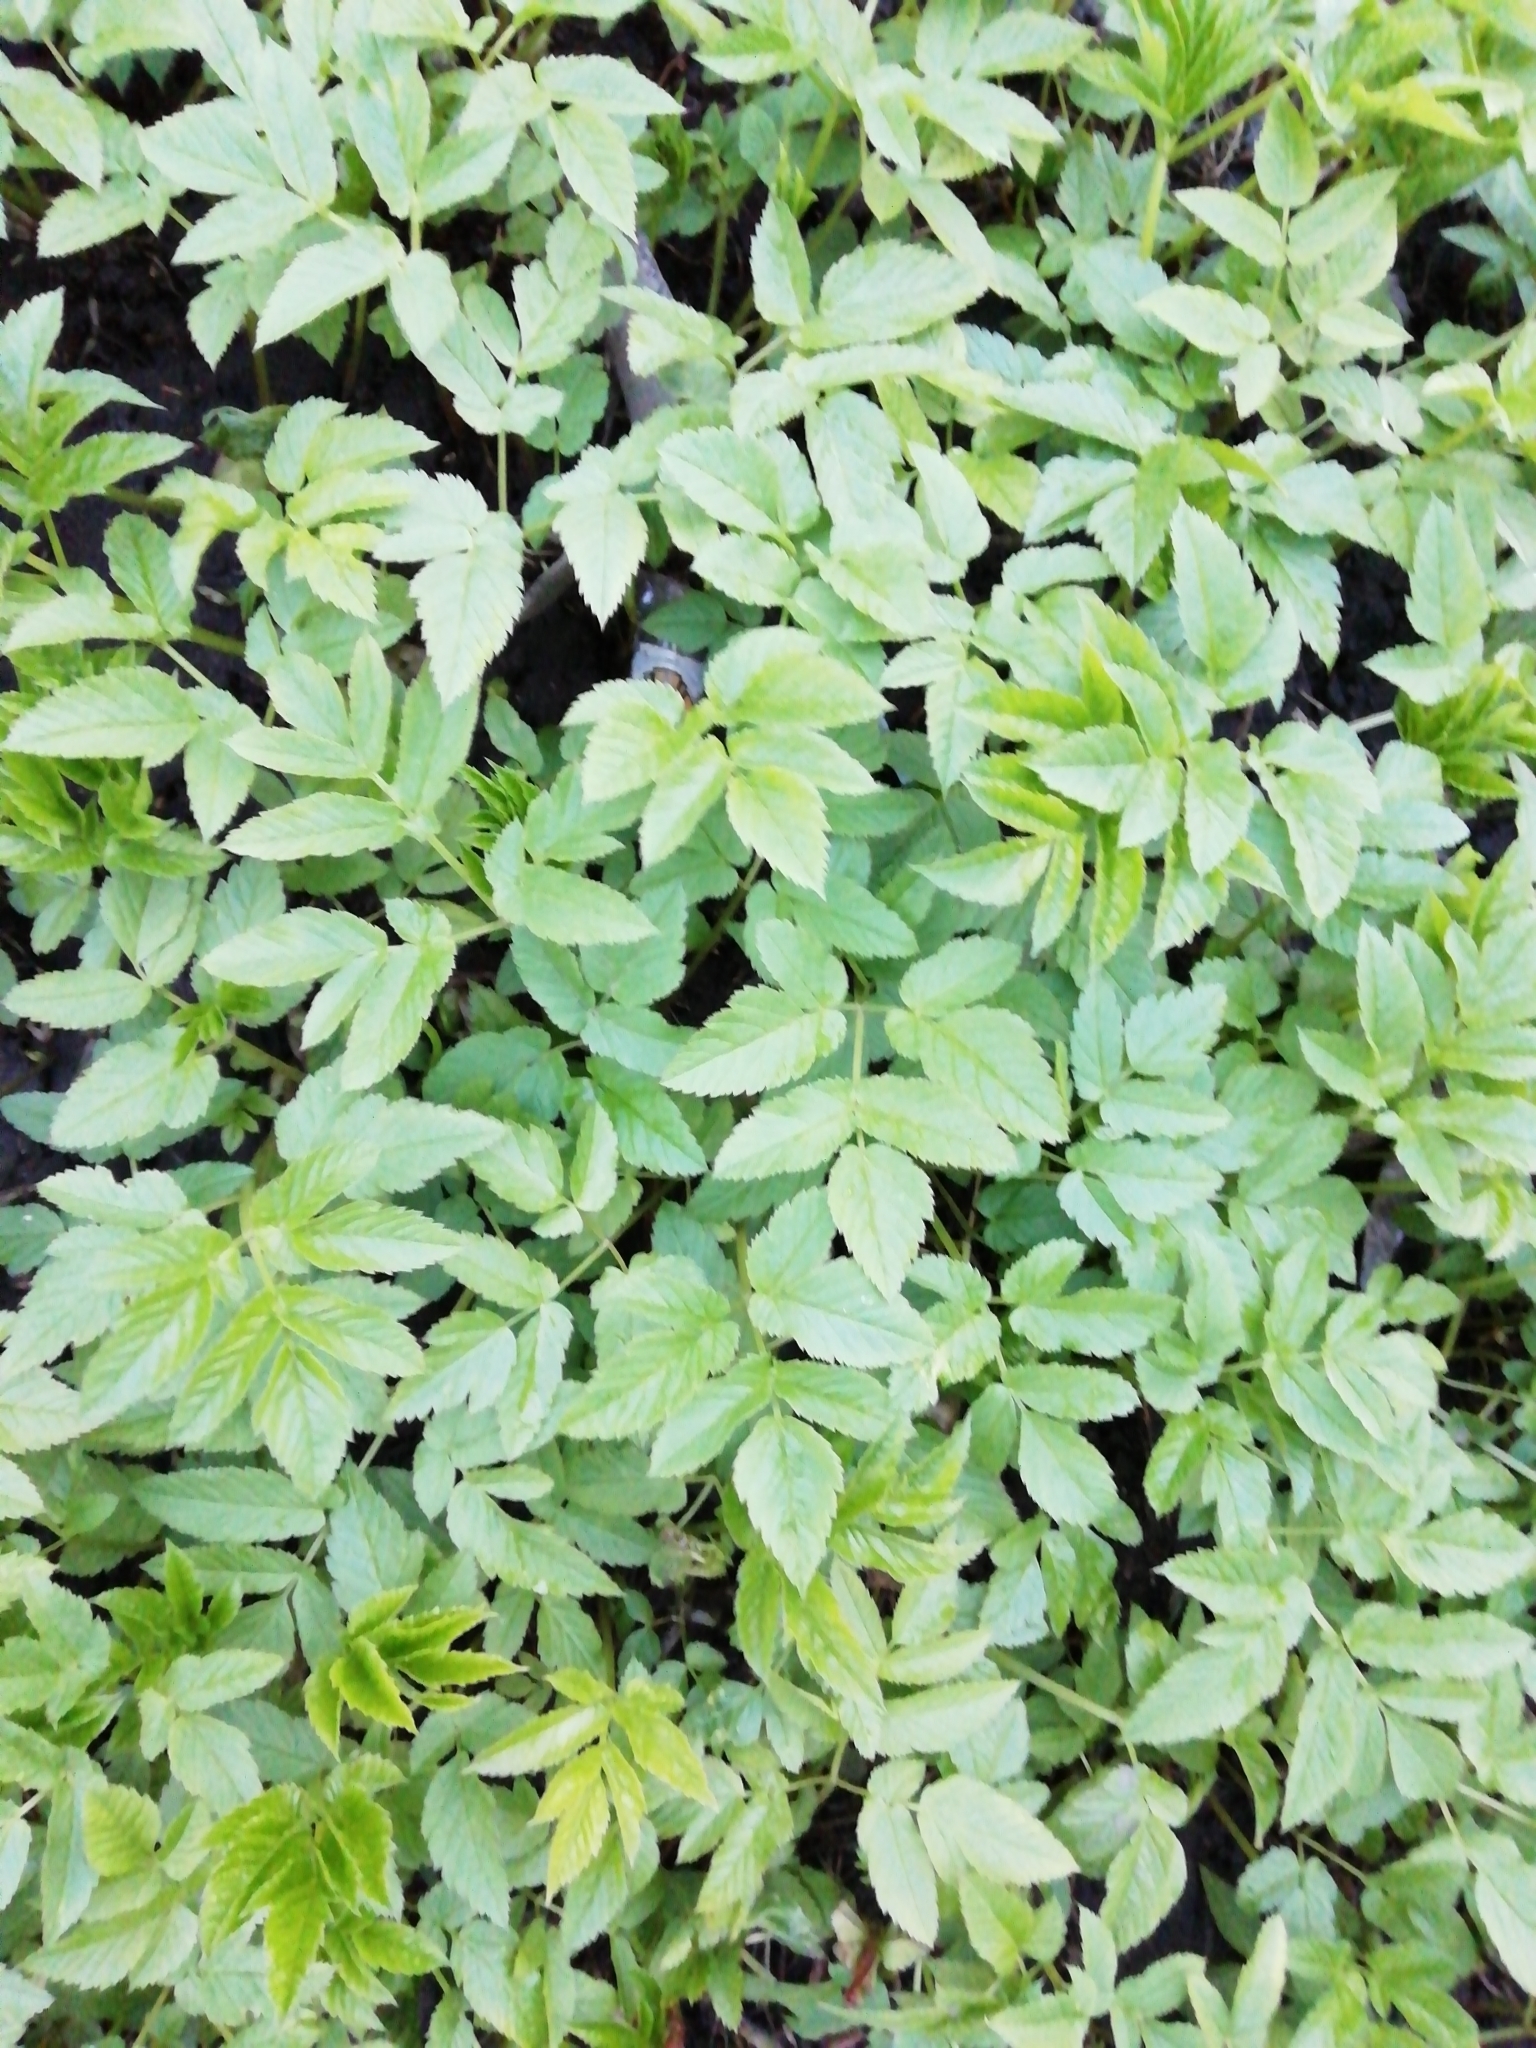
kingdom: Plantae
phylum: Tracheophyta
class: Magnoliopsida
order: Apiales
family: Apiaceae
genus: Aegopodium
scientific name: Aegopodium podagraria
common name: Ground-elder
